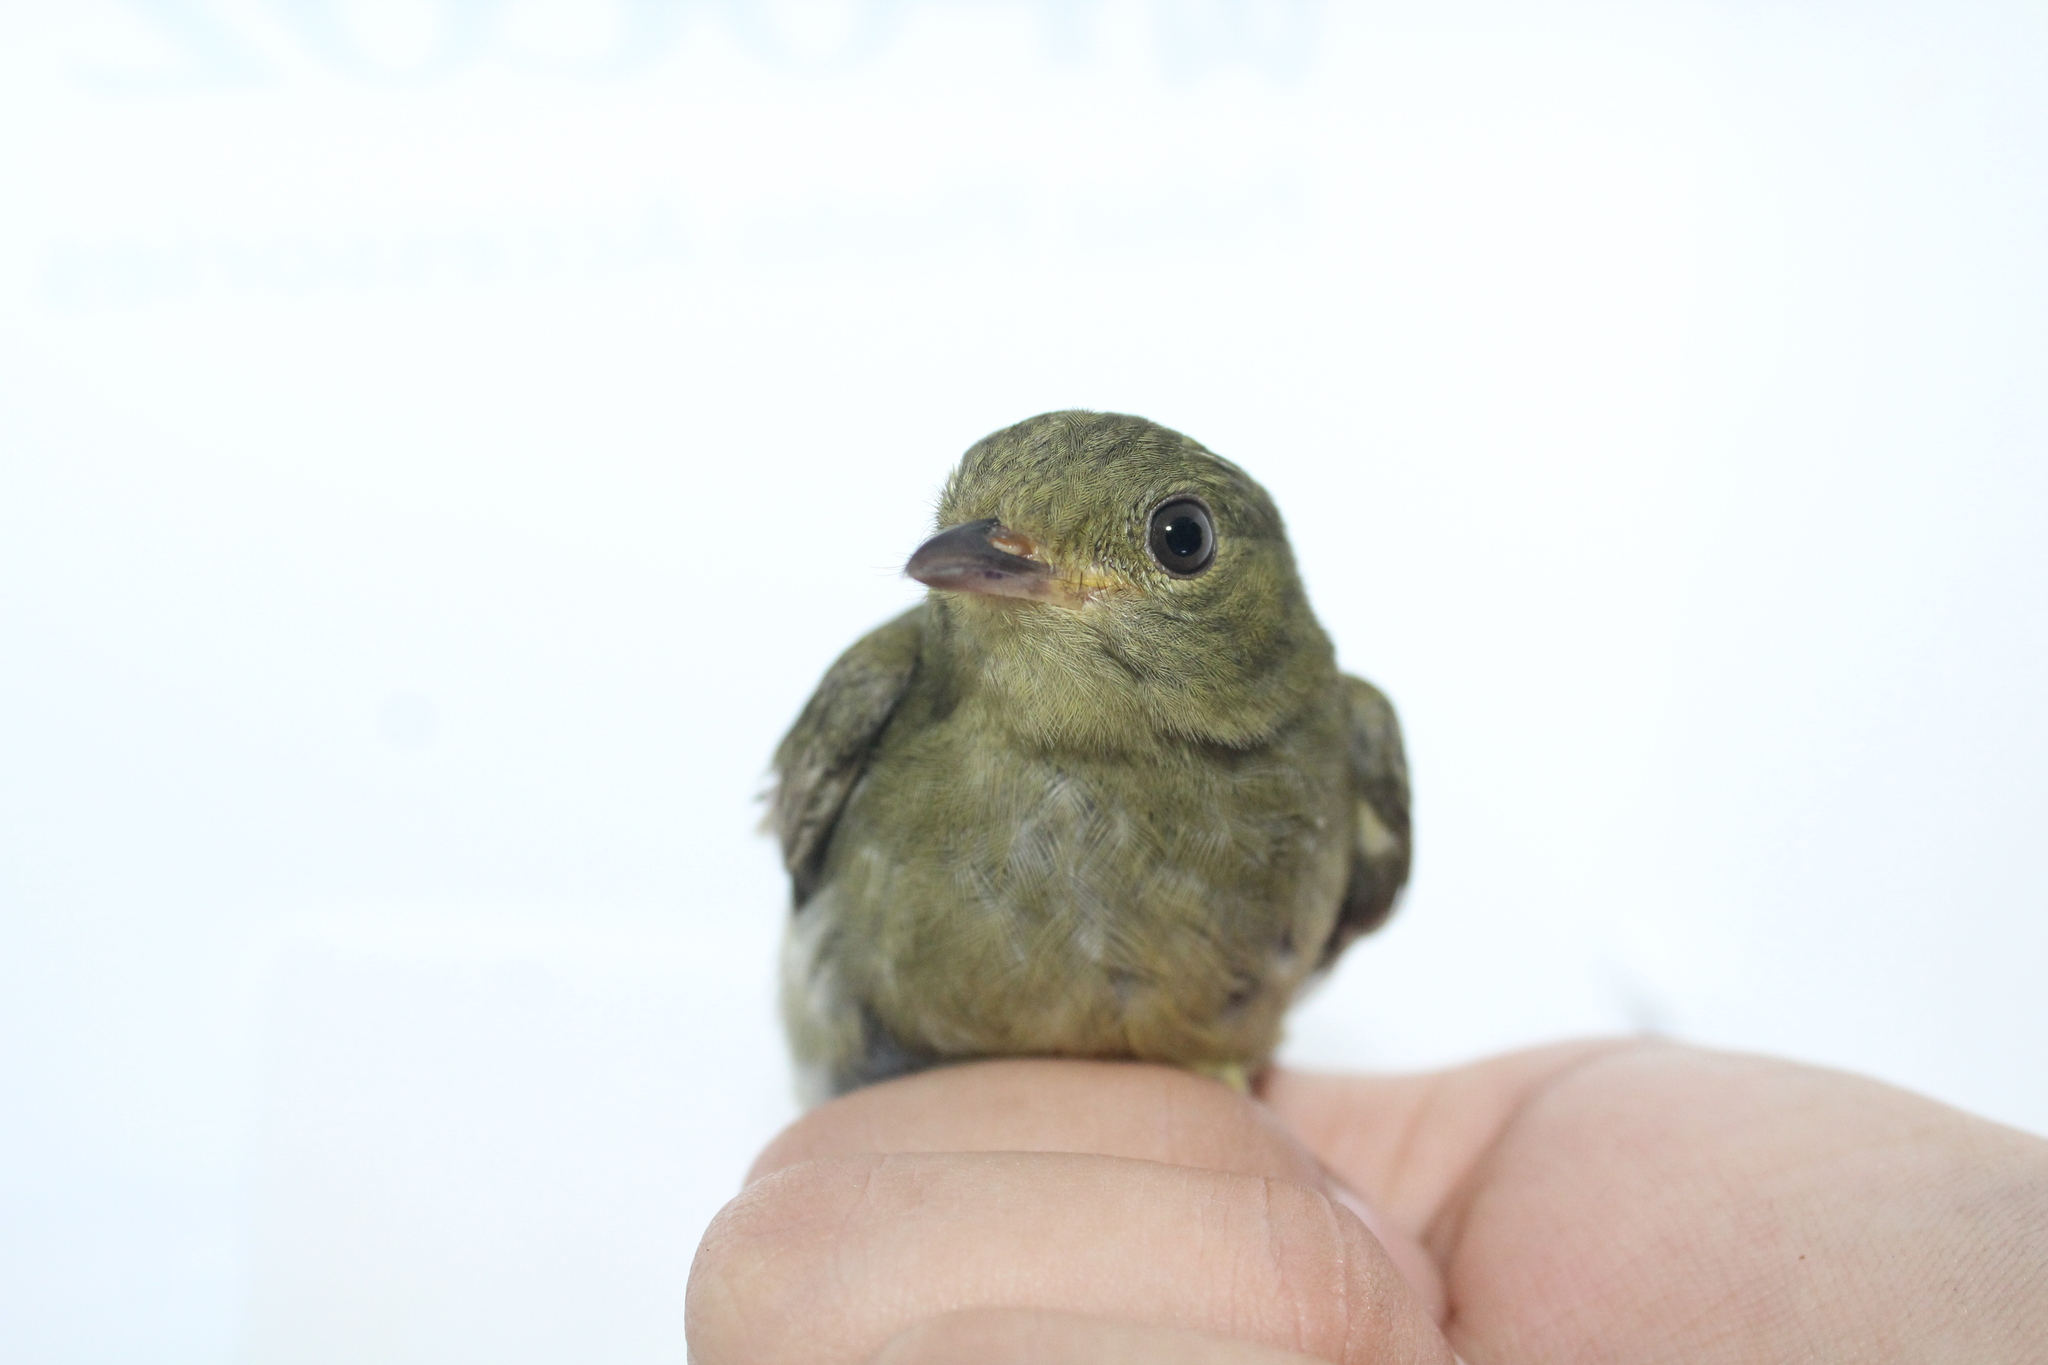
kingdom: Animalia
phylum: Chordata
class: Aves
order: Passeriformes
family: Pipridae
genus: Pipra
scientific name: Pipra mentalis
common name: Red-capped manakin
